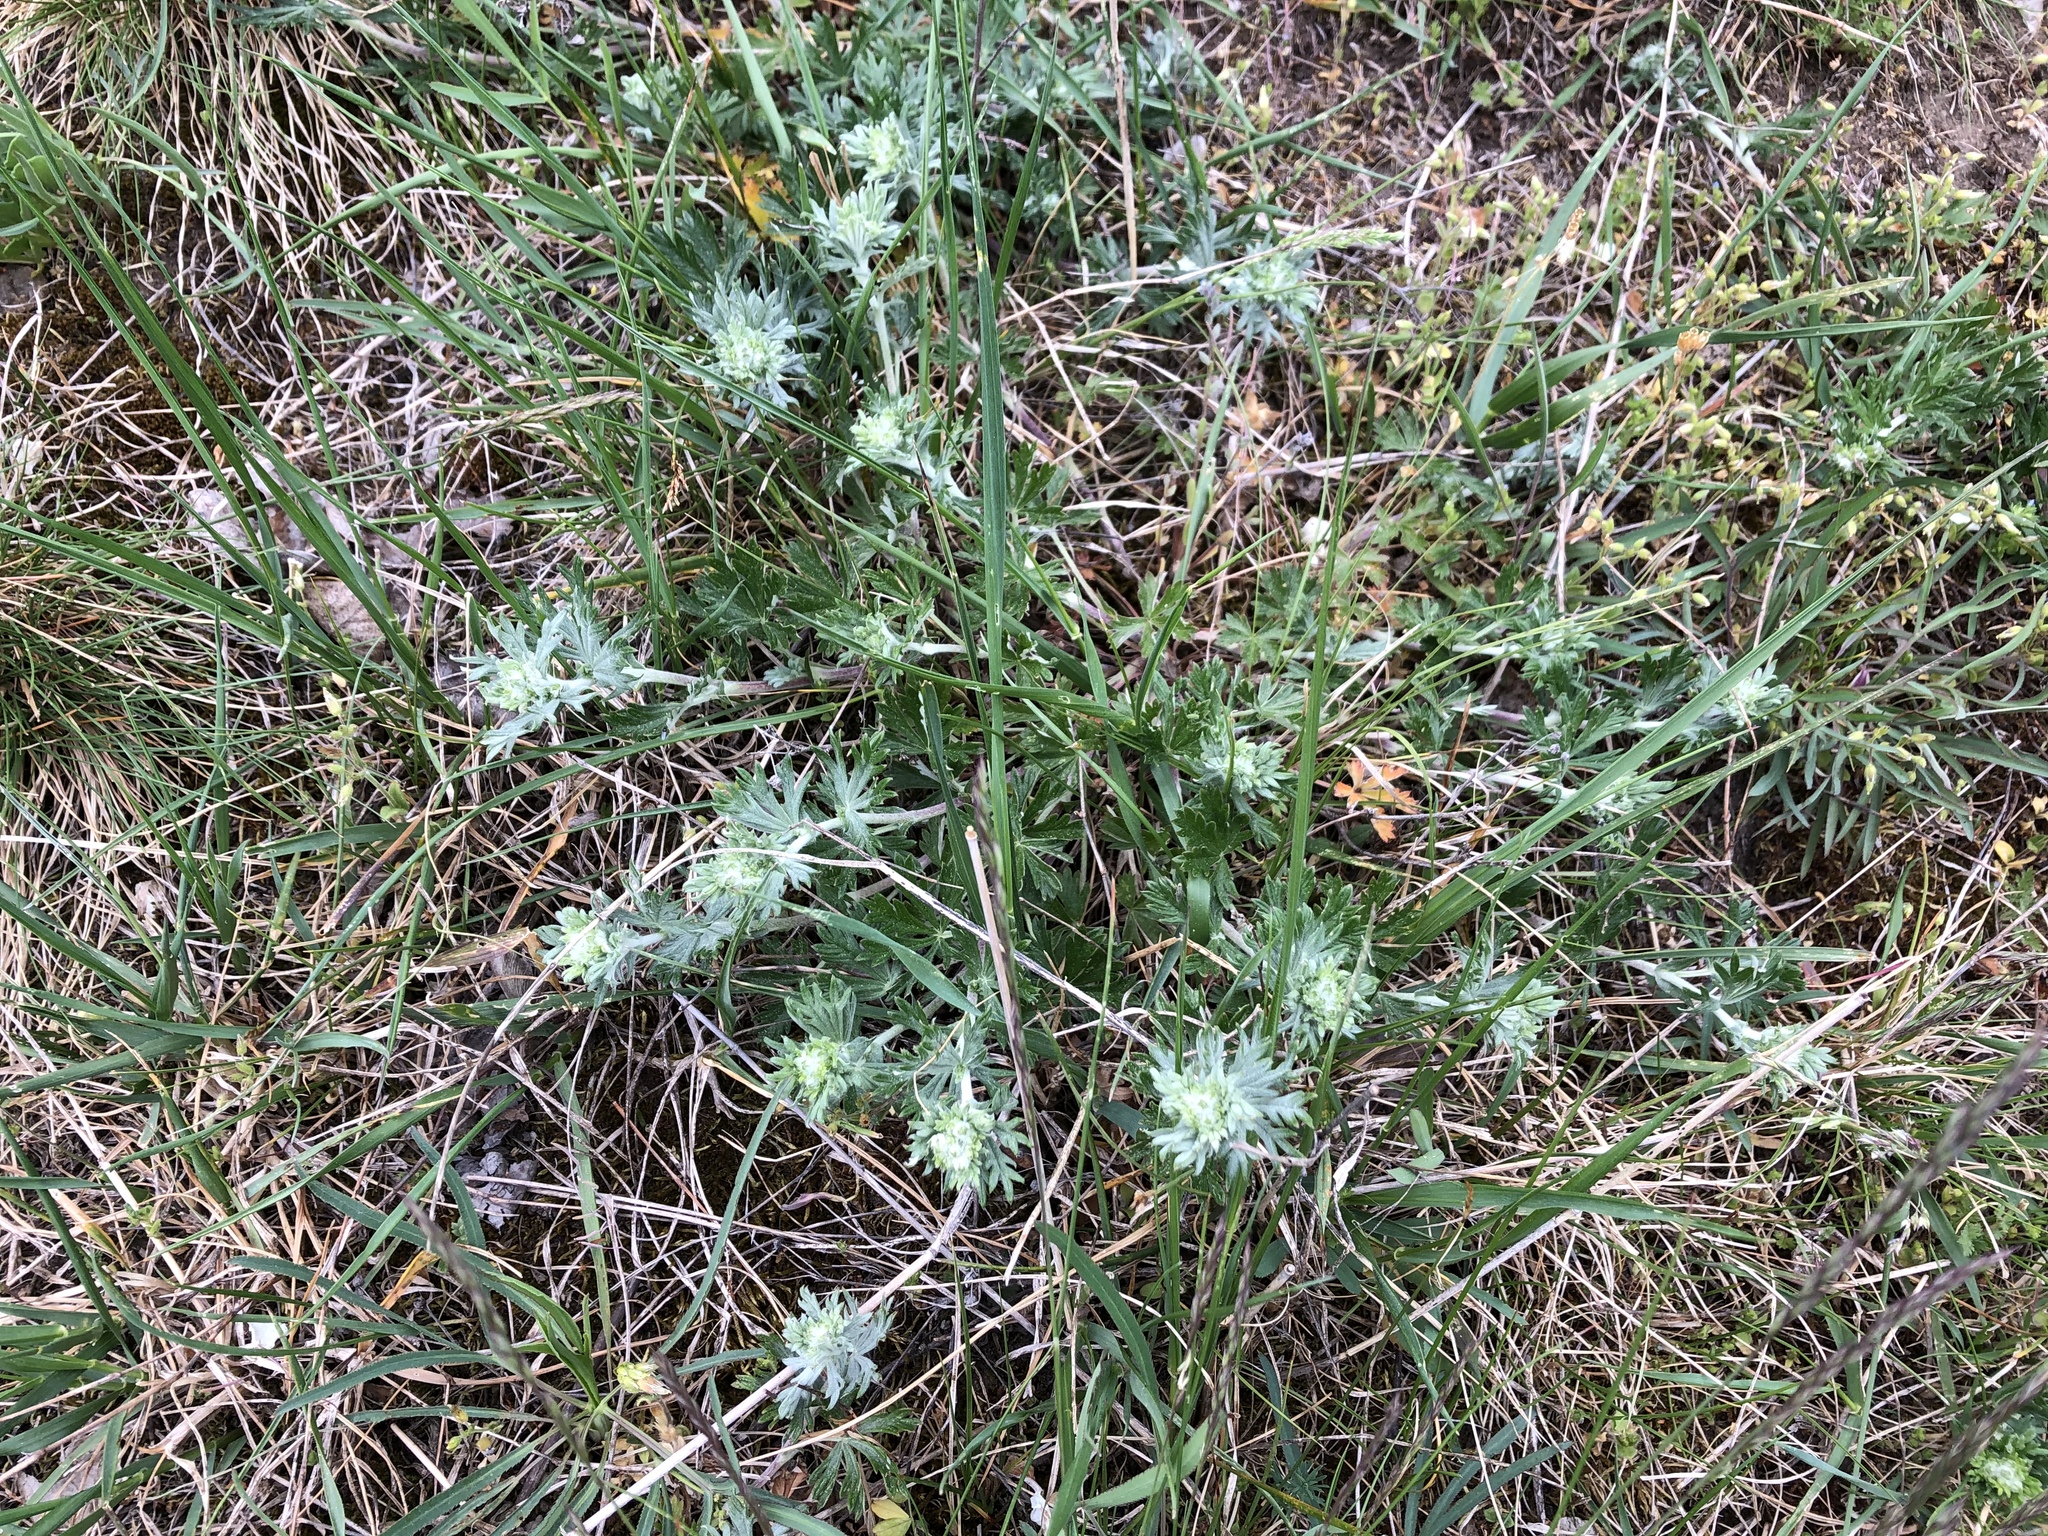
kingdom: Plantae
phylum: Tracheophyta
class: Magnoliopsida
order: Rosales
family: Rosaceae
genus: Potentilla
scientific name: Potentilla argentea
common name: Hoary cinquefoil
